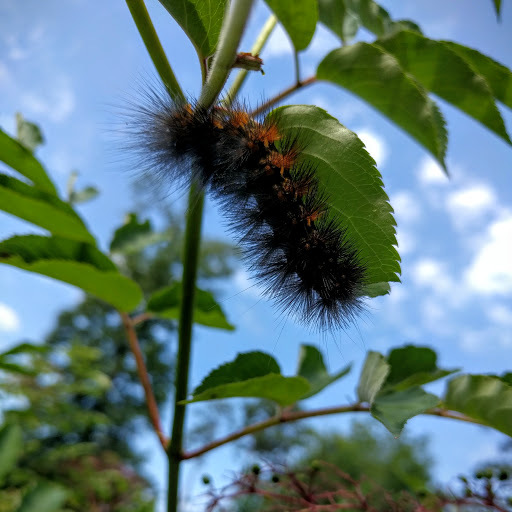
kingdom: Animalia
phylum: Arthropoda
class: Insecta
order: Lepidoptera
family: Erebidae
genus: Estigmene
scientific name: Estigmene acrea
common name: Salt marsh moth
